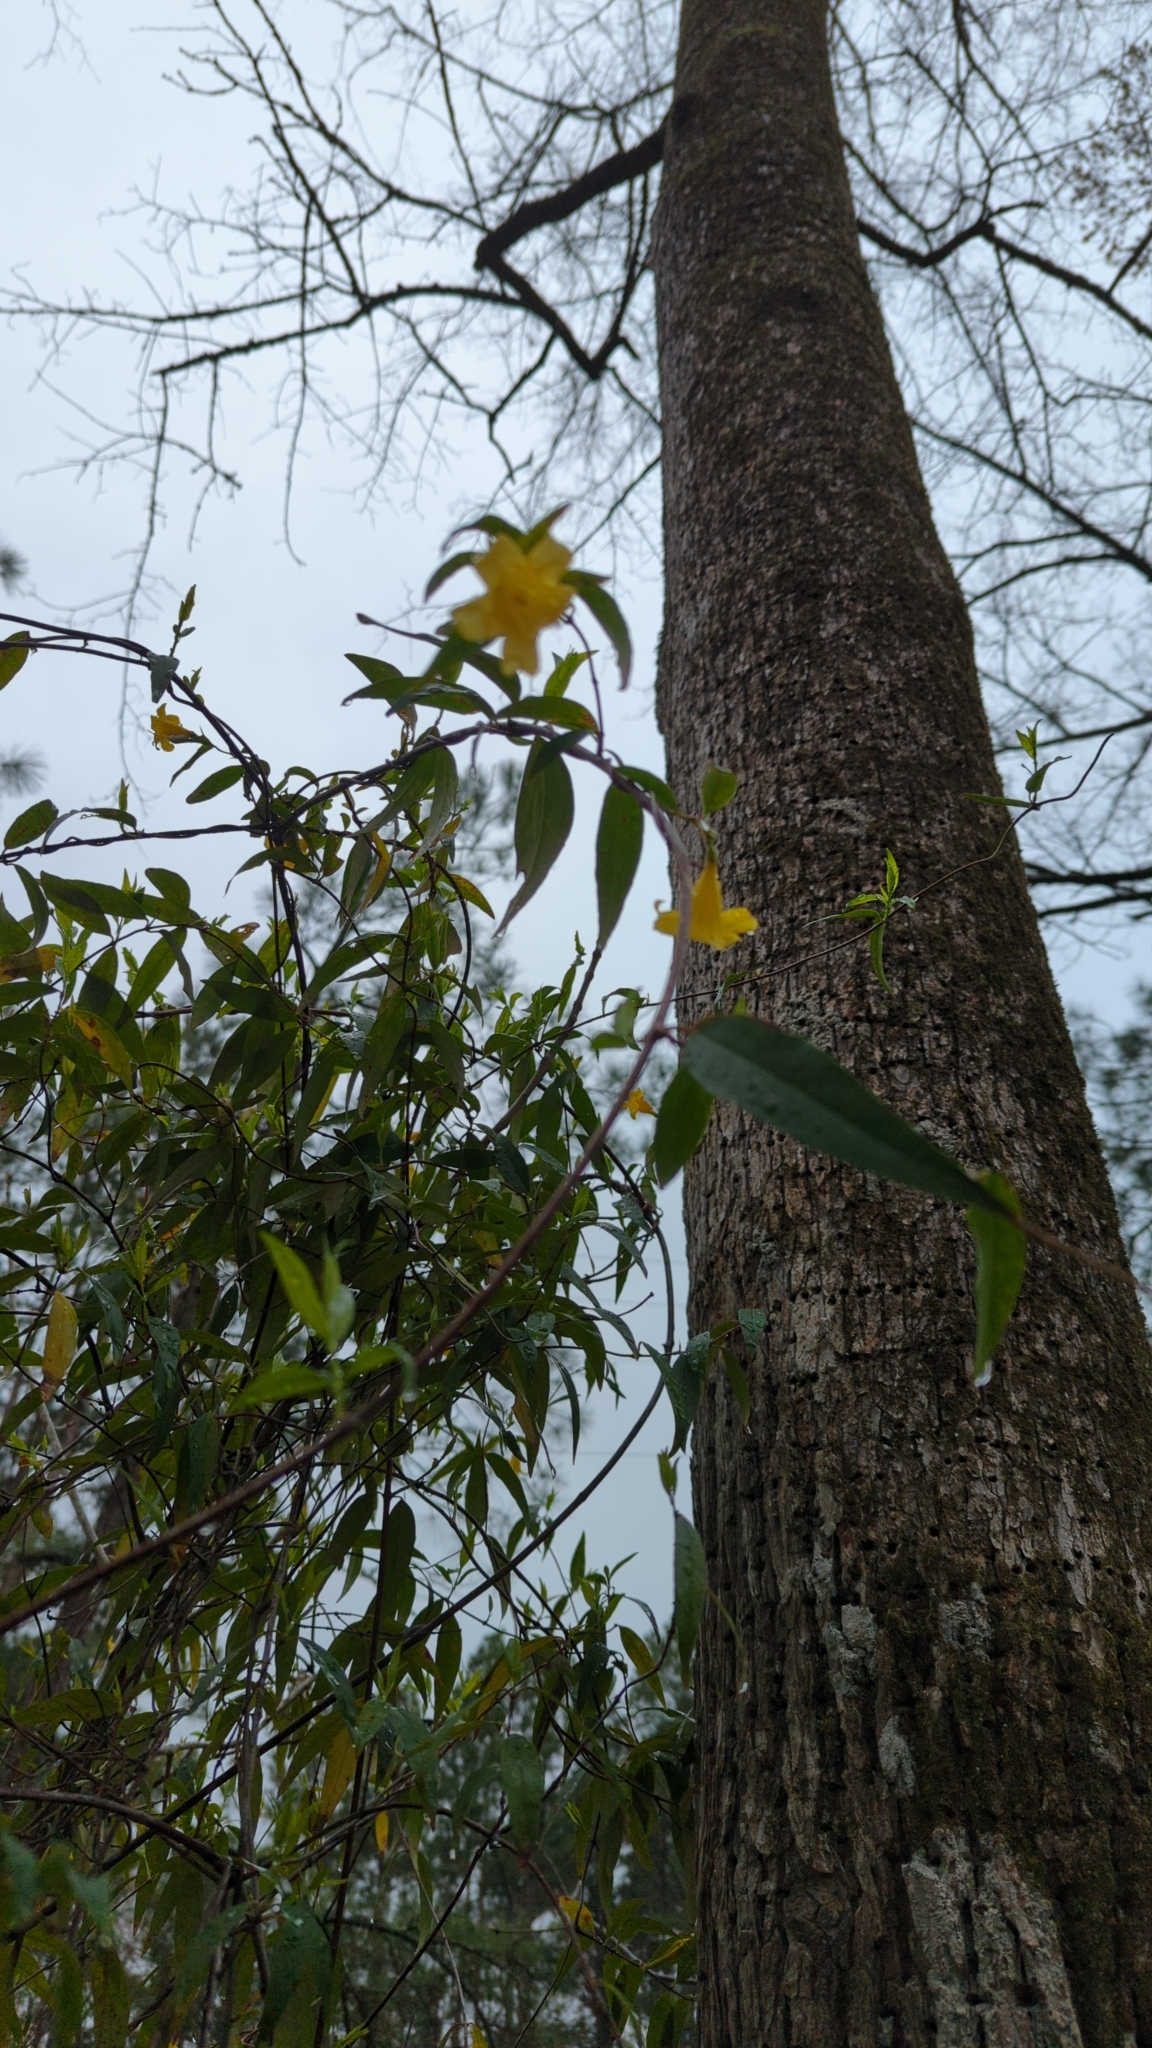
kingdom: Plantae
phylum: Tracheophyta
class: Magnoliopsida
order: Gentianales
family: Gelsemiaceae
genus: Gelsemium
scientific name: Gelsemium sempervirens
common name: Carolina-jasmine
